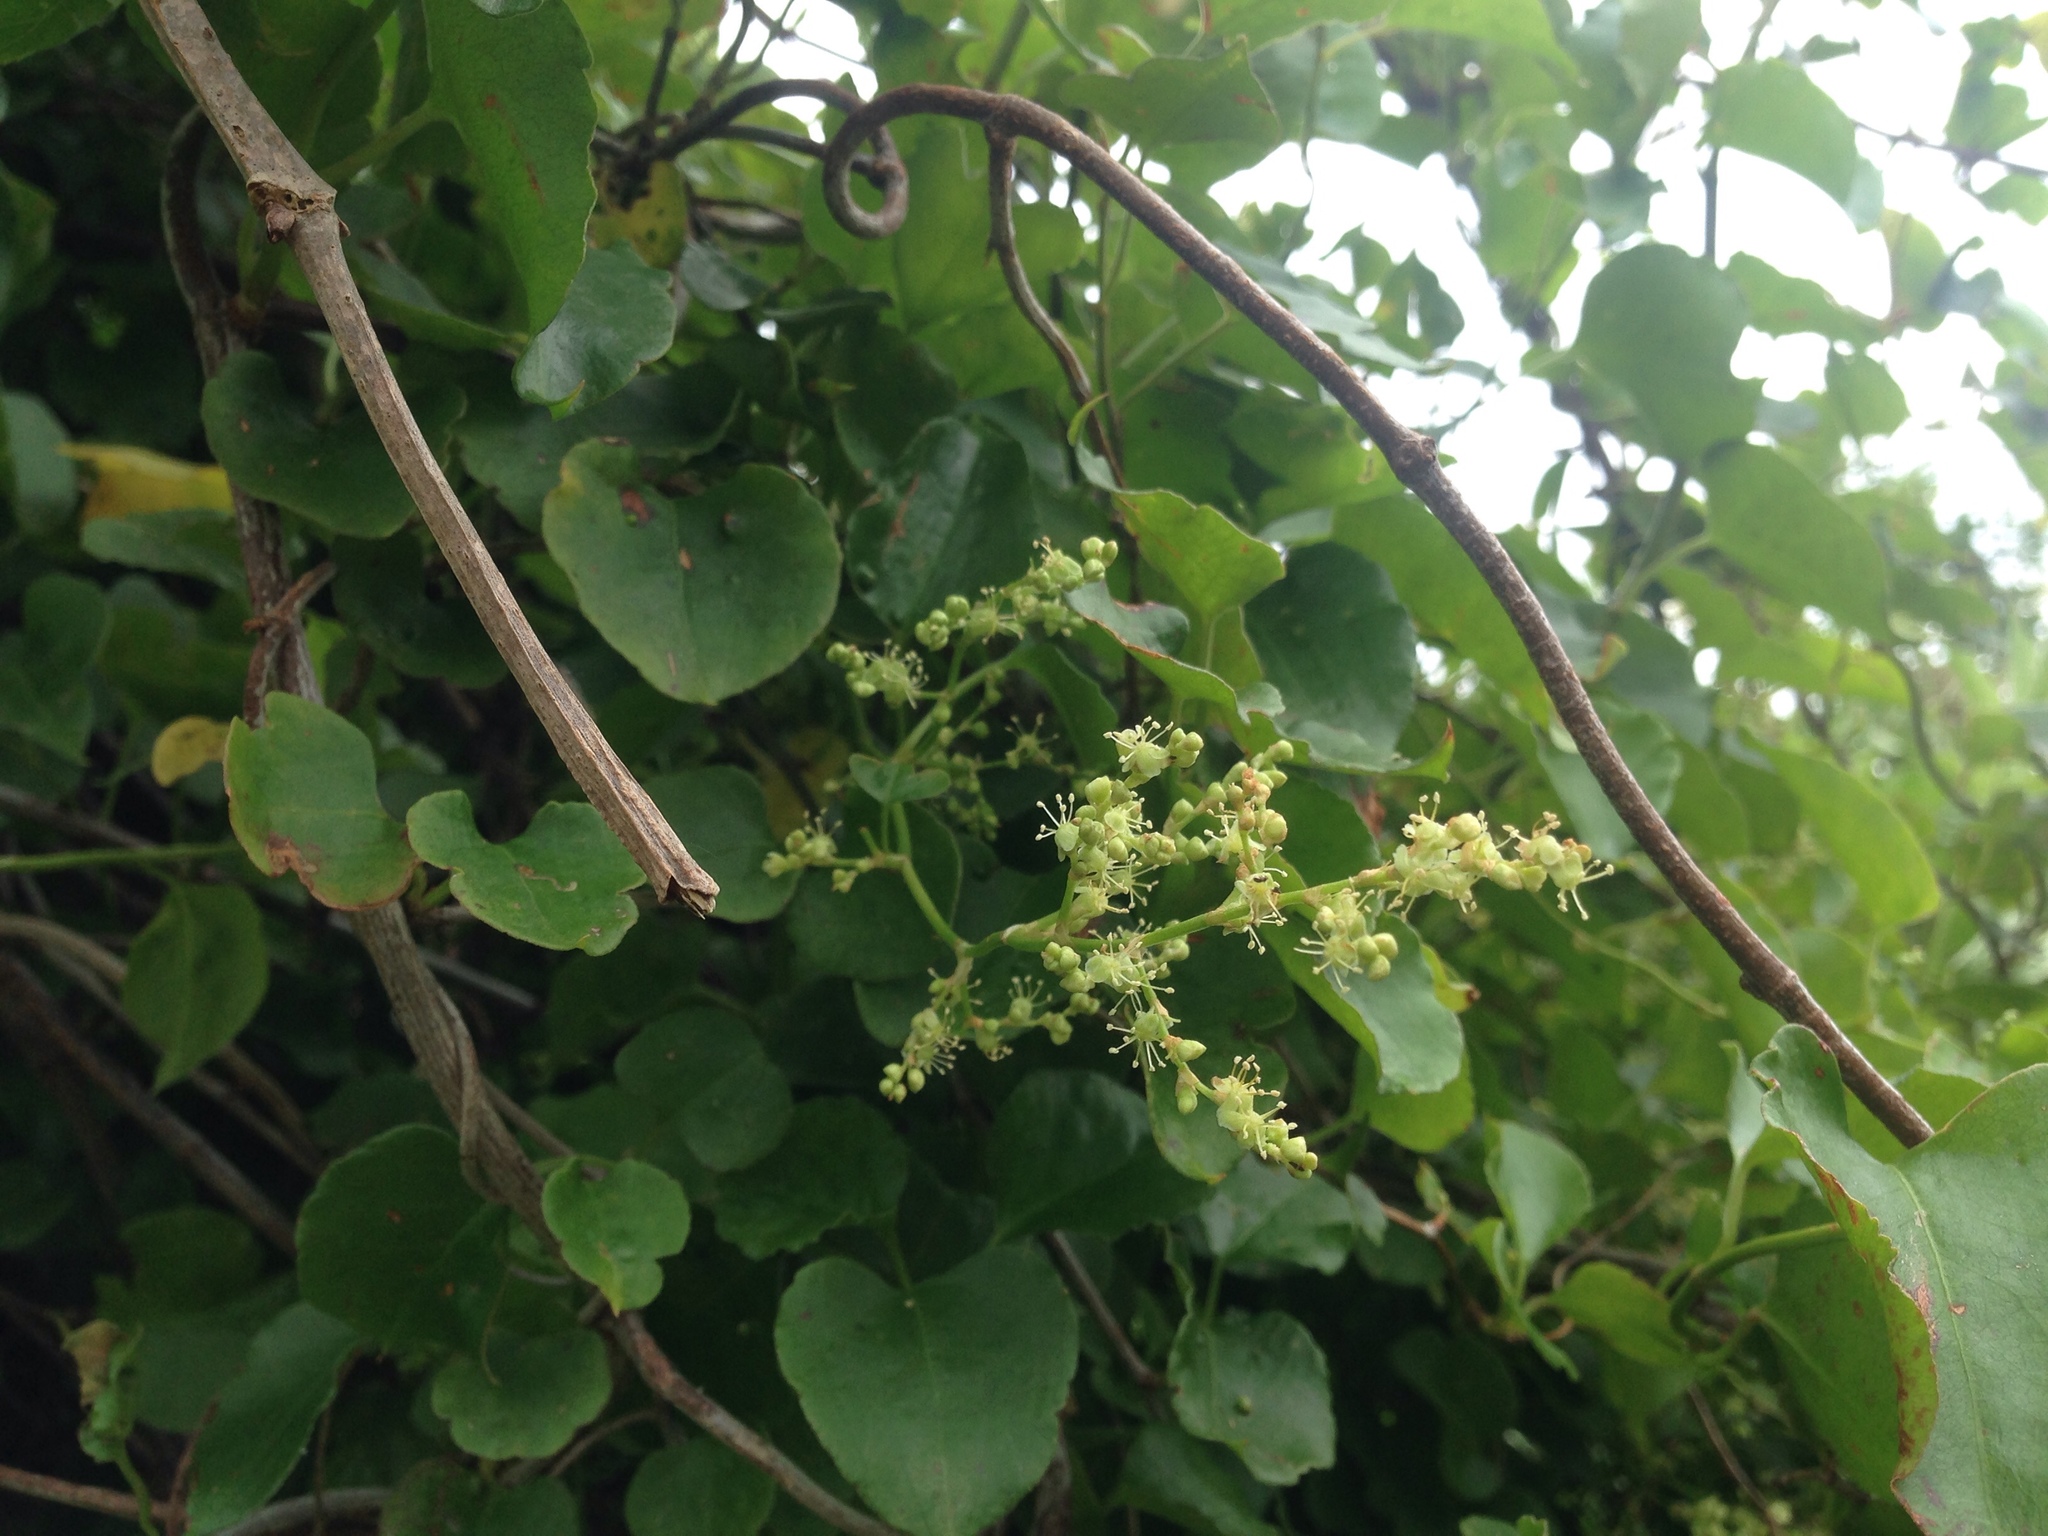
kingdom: Plantae
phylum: Tracheophyta
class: Magnoliopsida
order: Caryophyllales
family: Polygonaceae
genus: Muehlenbeckia
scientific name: Muehlenbeckia australis
